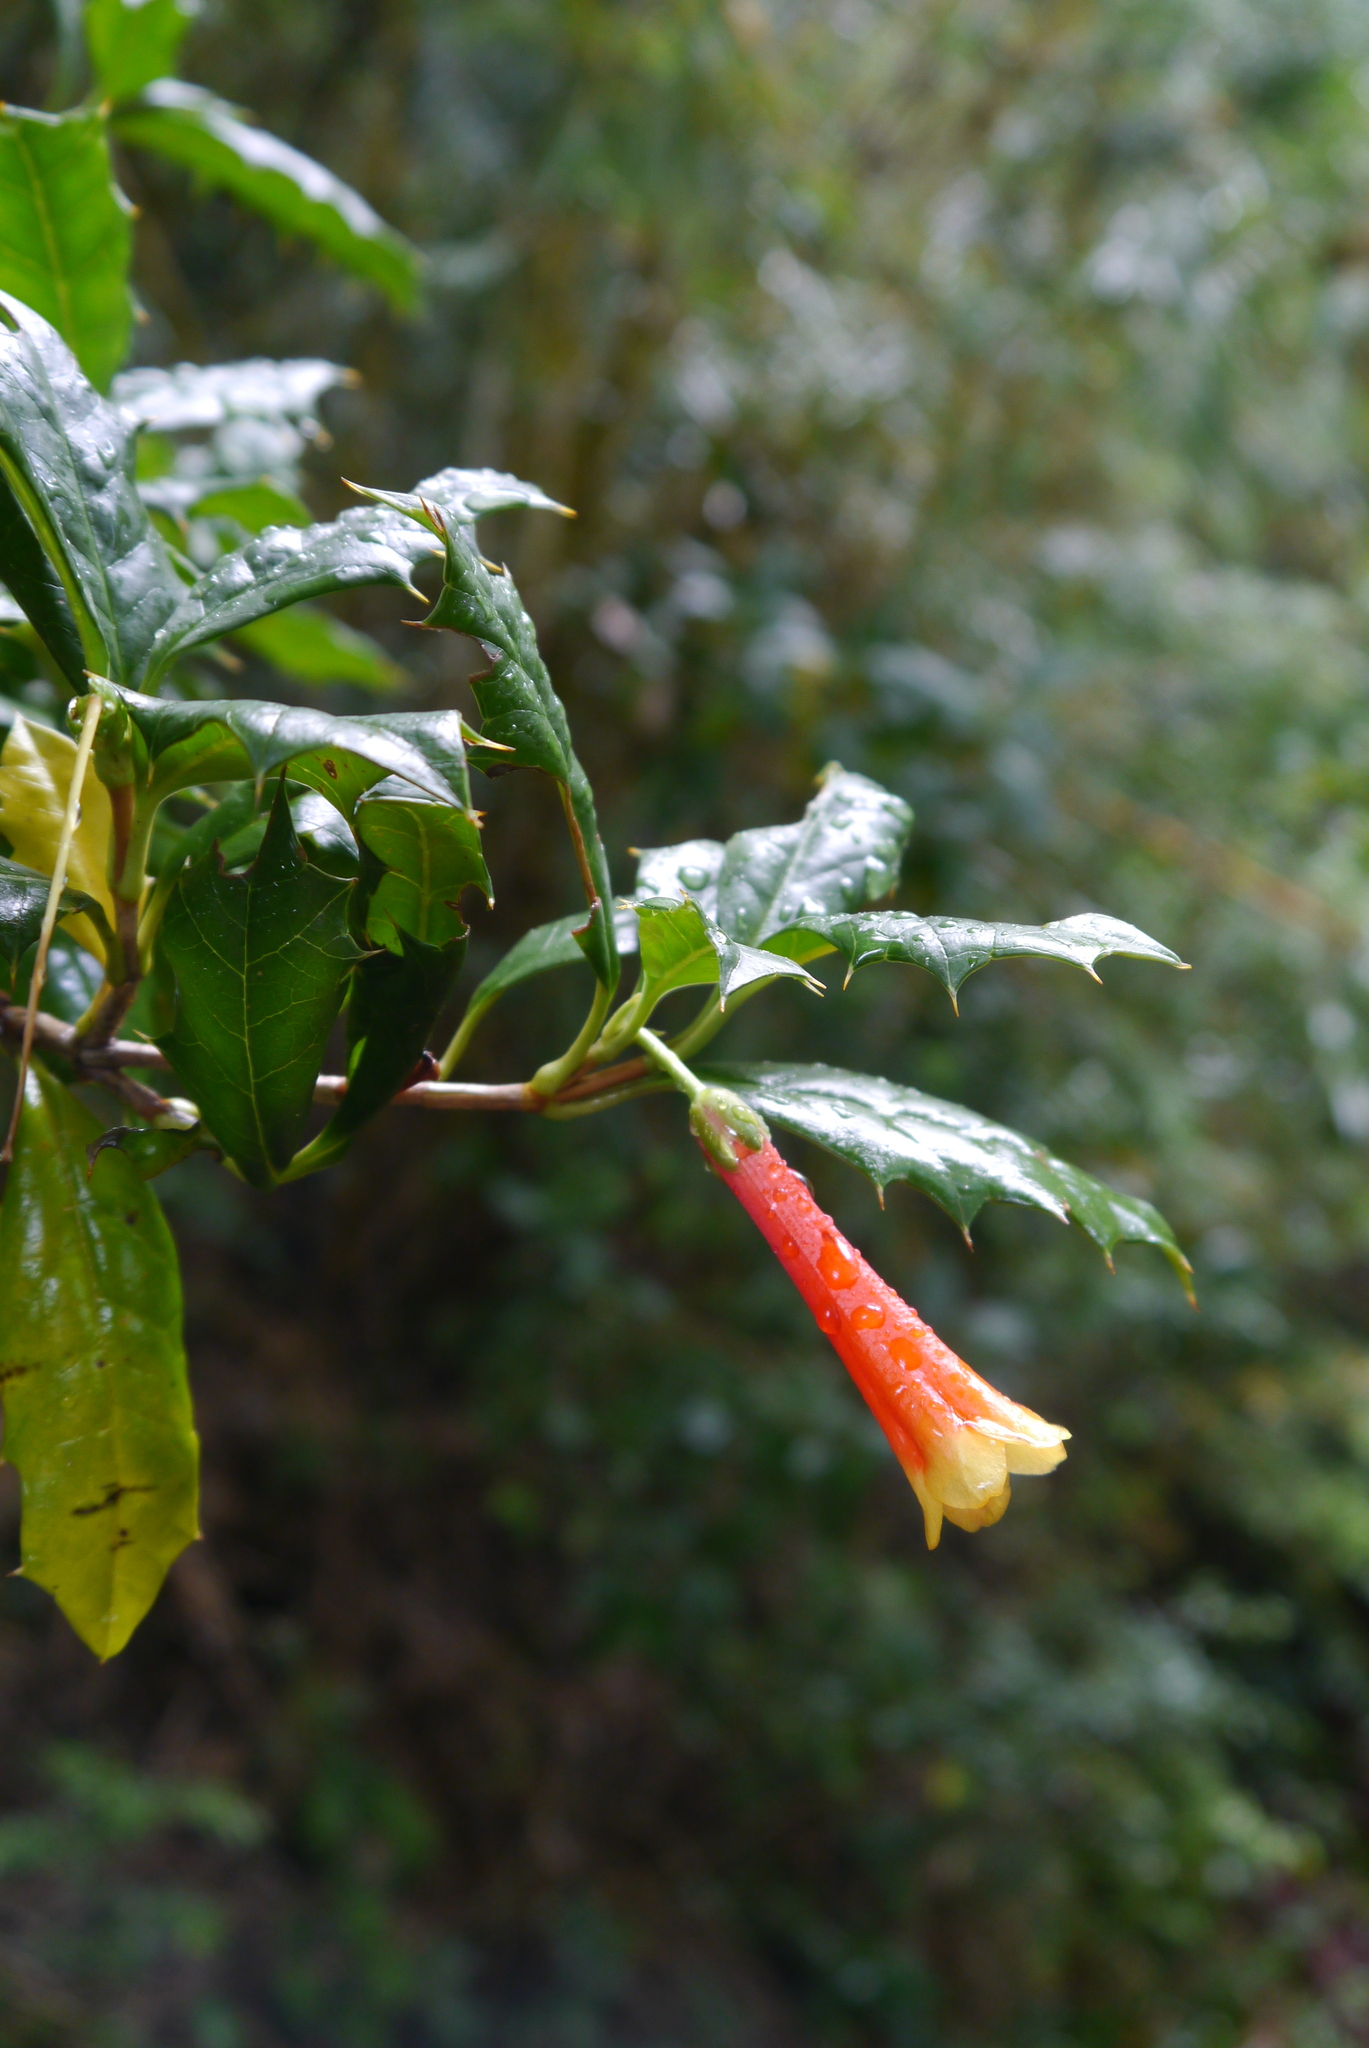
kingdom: Plantae
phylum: Tracheophyta
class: Magnoliopsida
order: Bruniales
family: Columelliaceae
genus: Desfontainia
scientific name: Desfontainia fulgens
